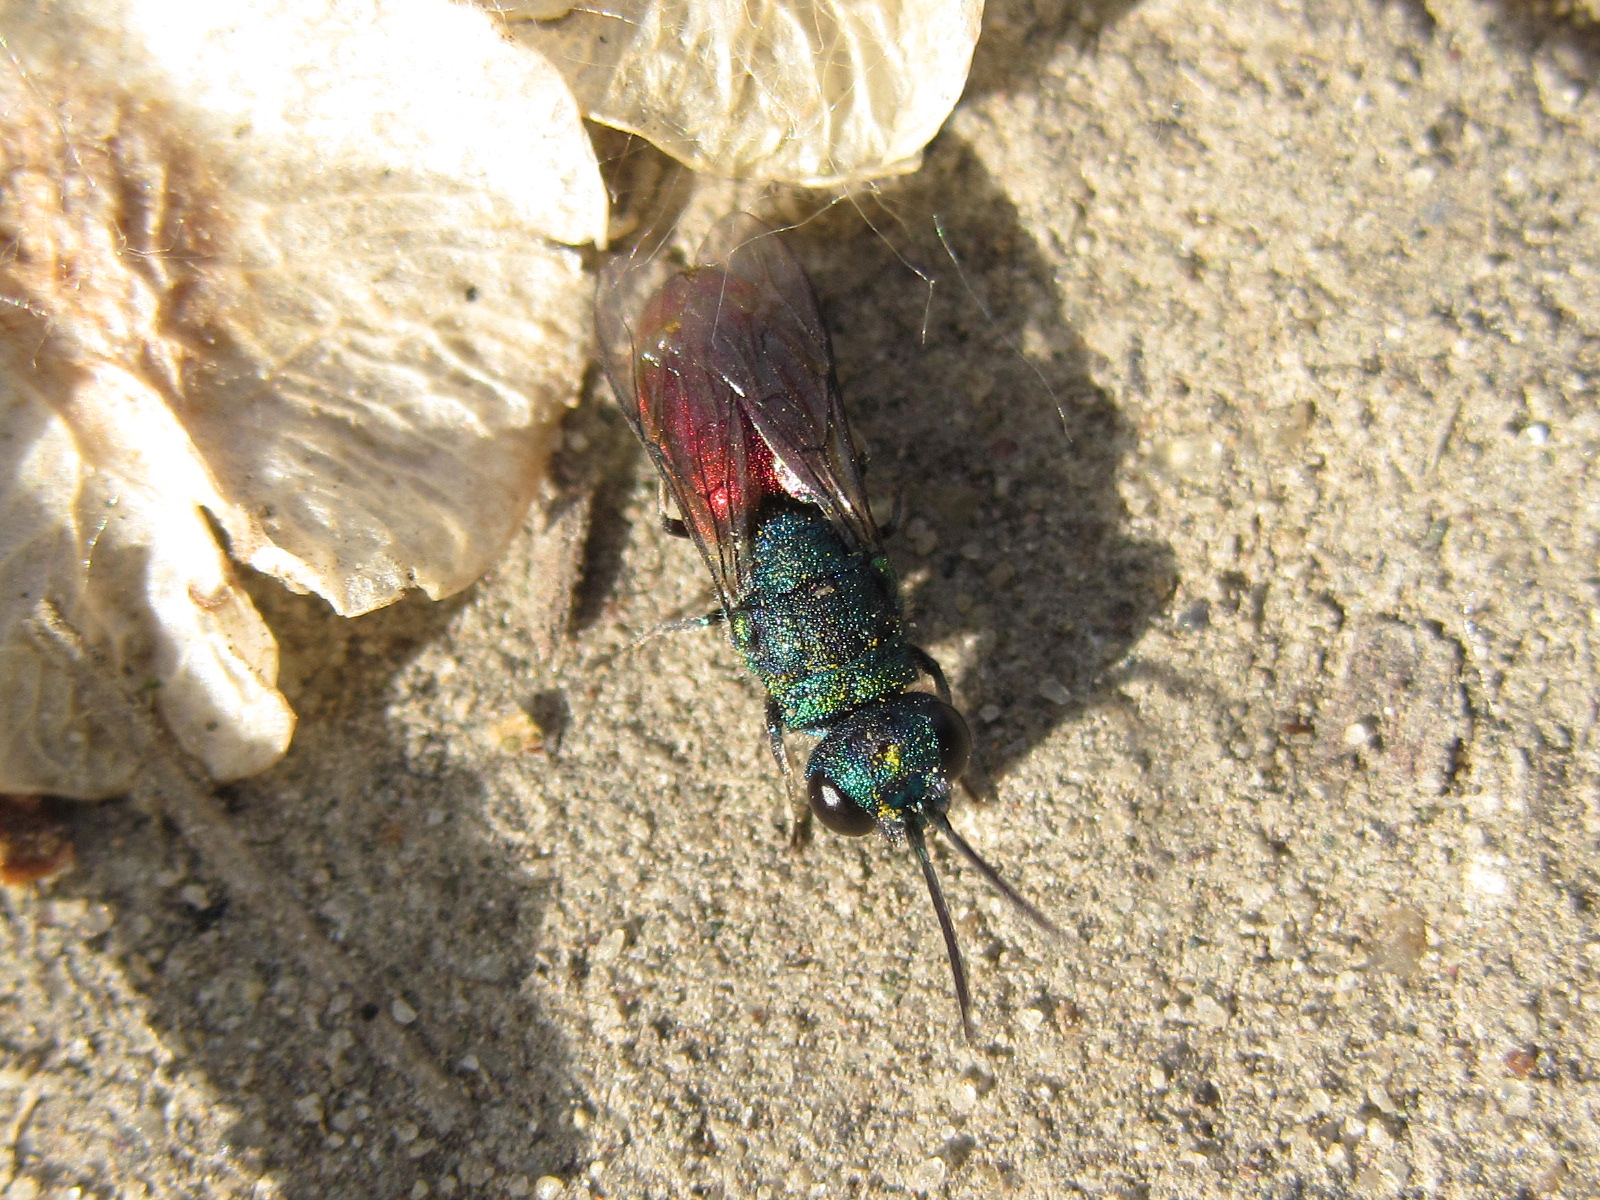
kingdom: Animalia
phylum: Arthropoda
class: Insecta
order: Hymenoptera
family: Chrysididae
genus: Pseudospinolia
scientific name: Pseudospinolia neglecta
